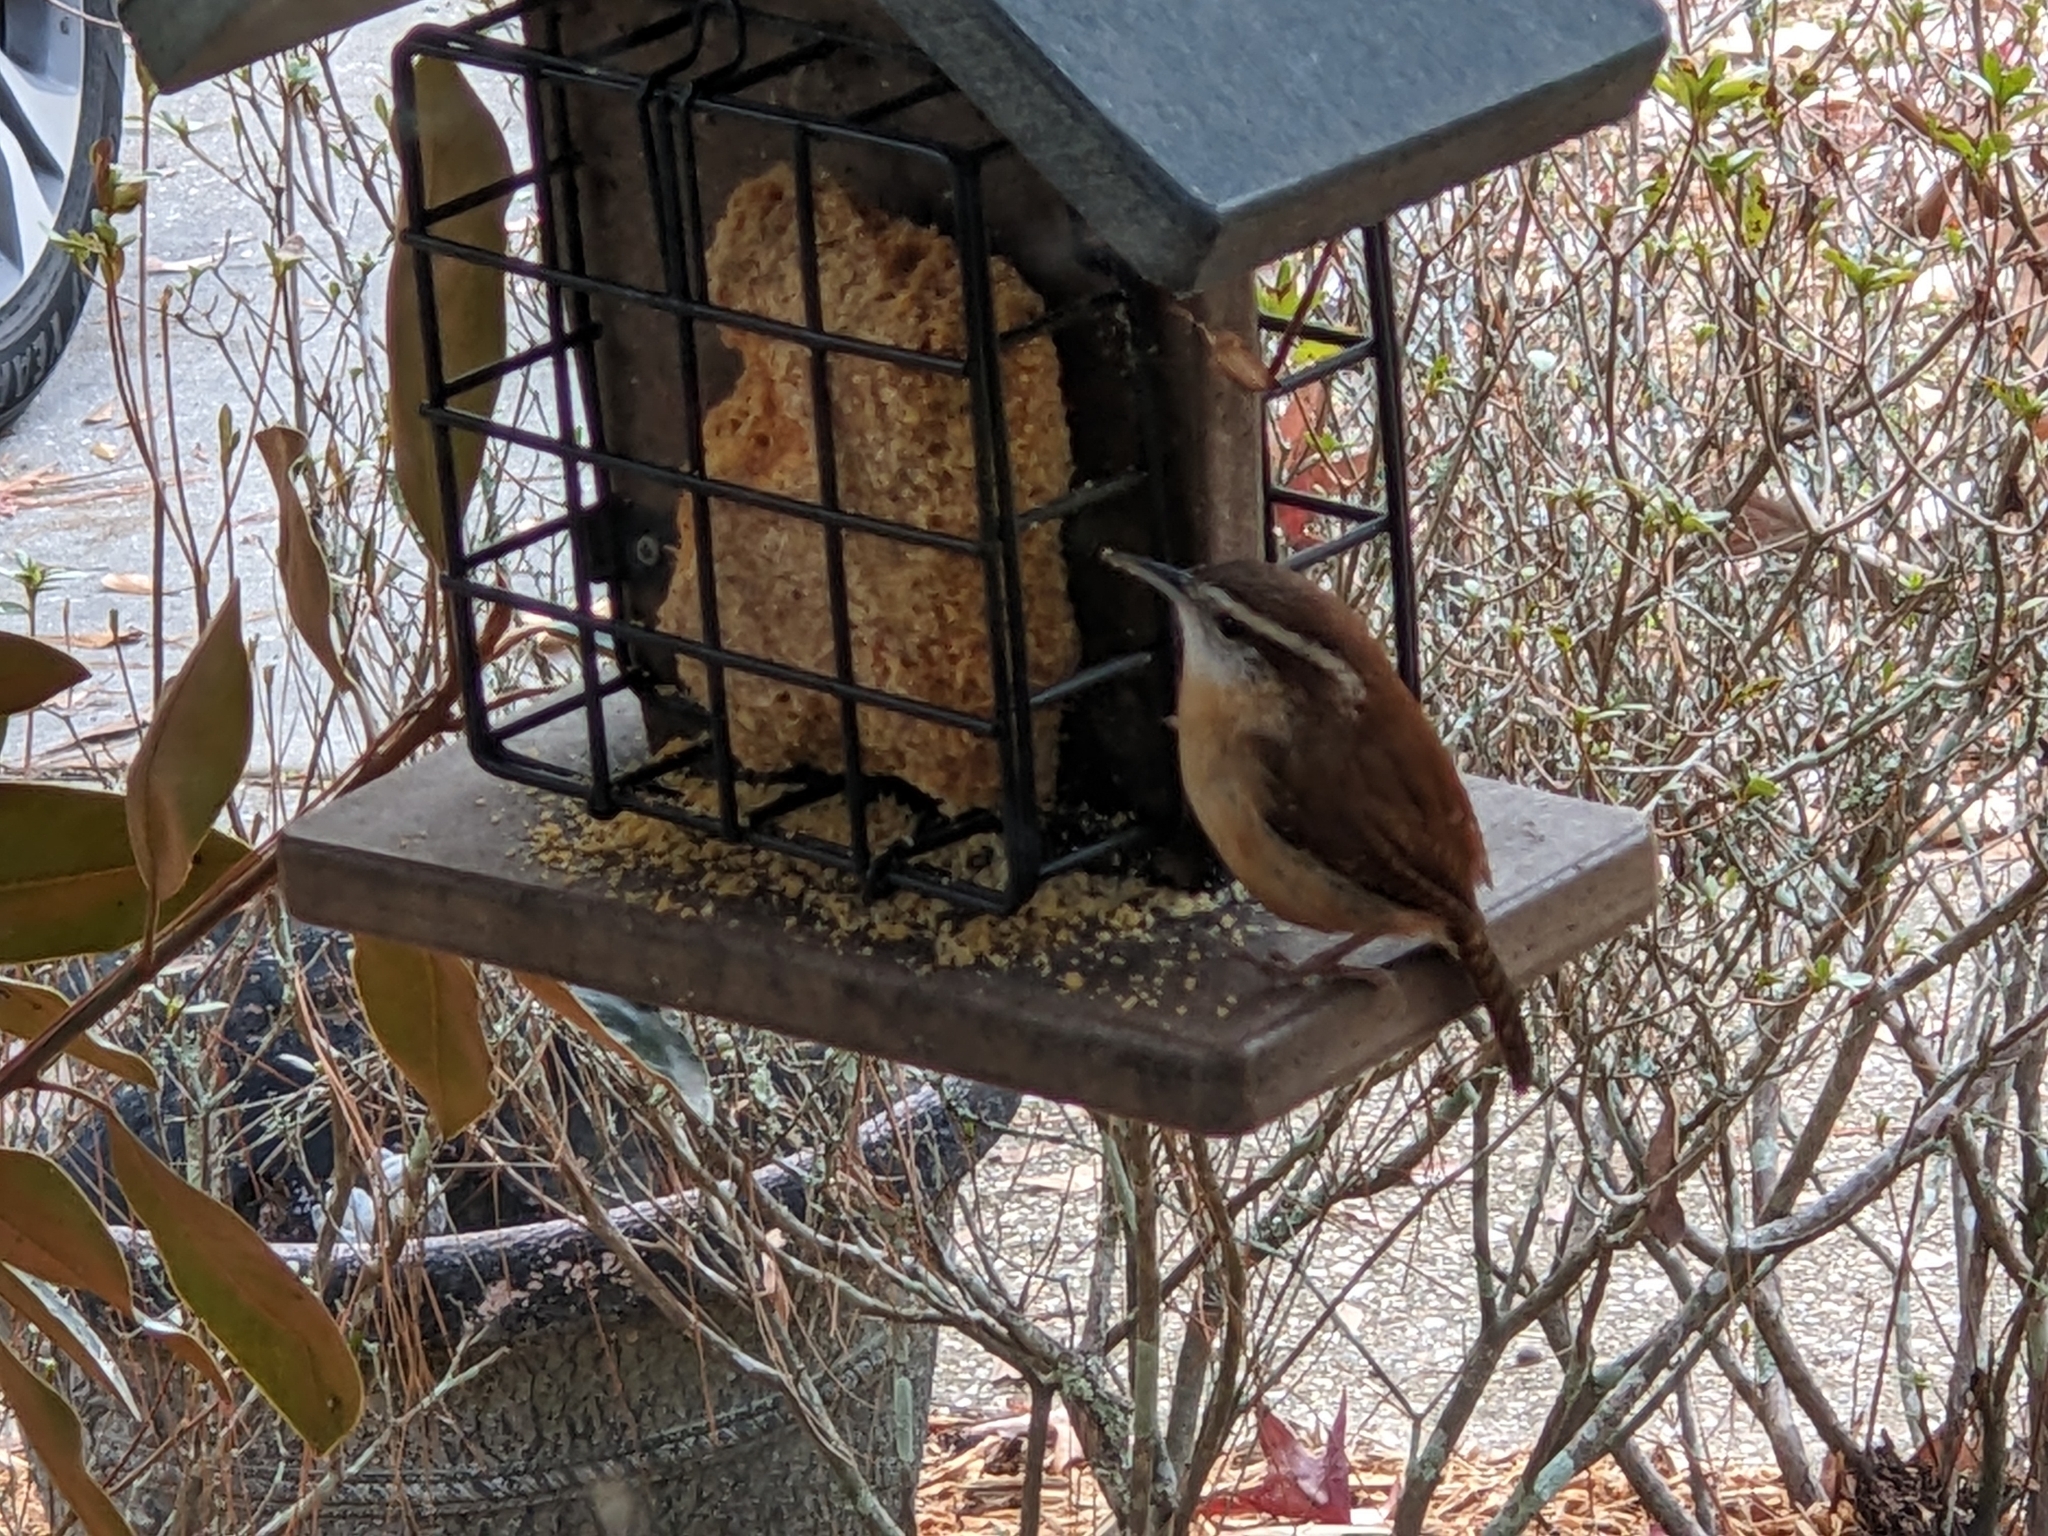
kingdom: Animalia
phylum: Chordata
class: Aves
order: Passeriformes
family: Troglodytidae
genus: Thryothorus
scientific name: Thryothorus ludovicianus
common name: Carolina wren
